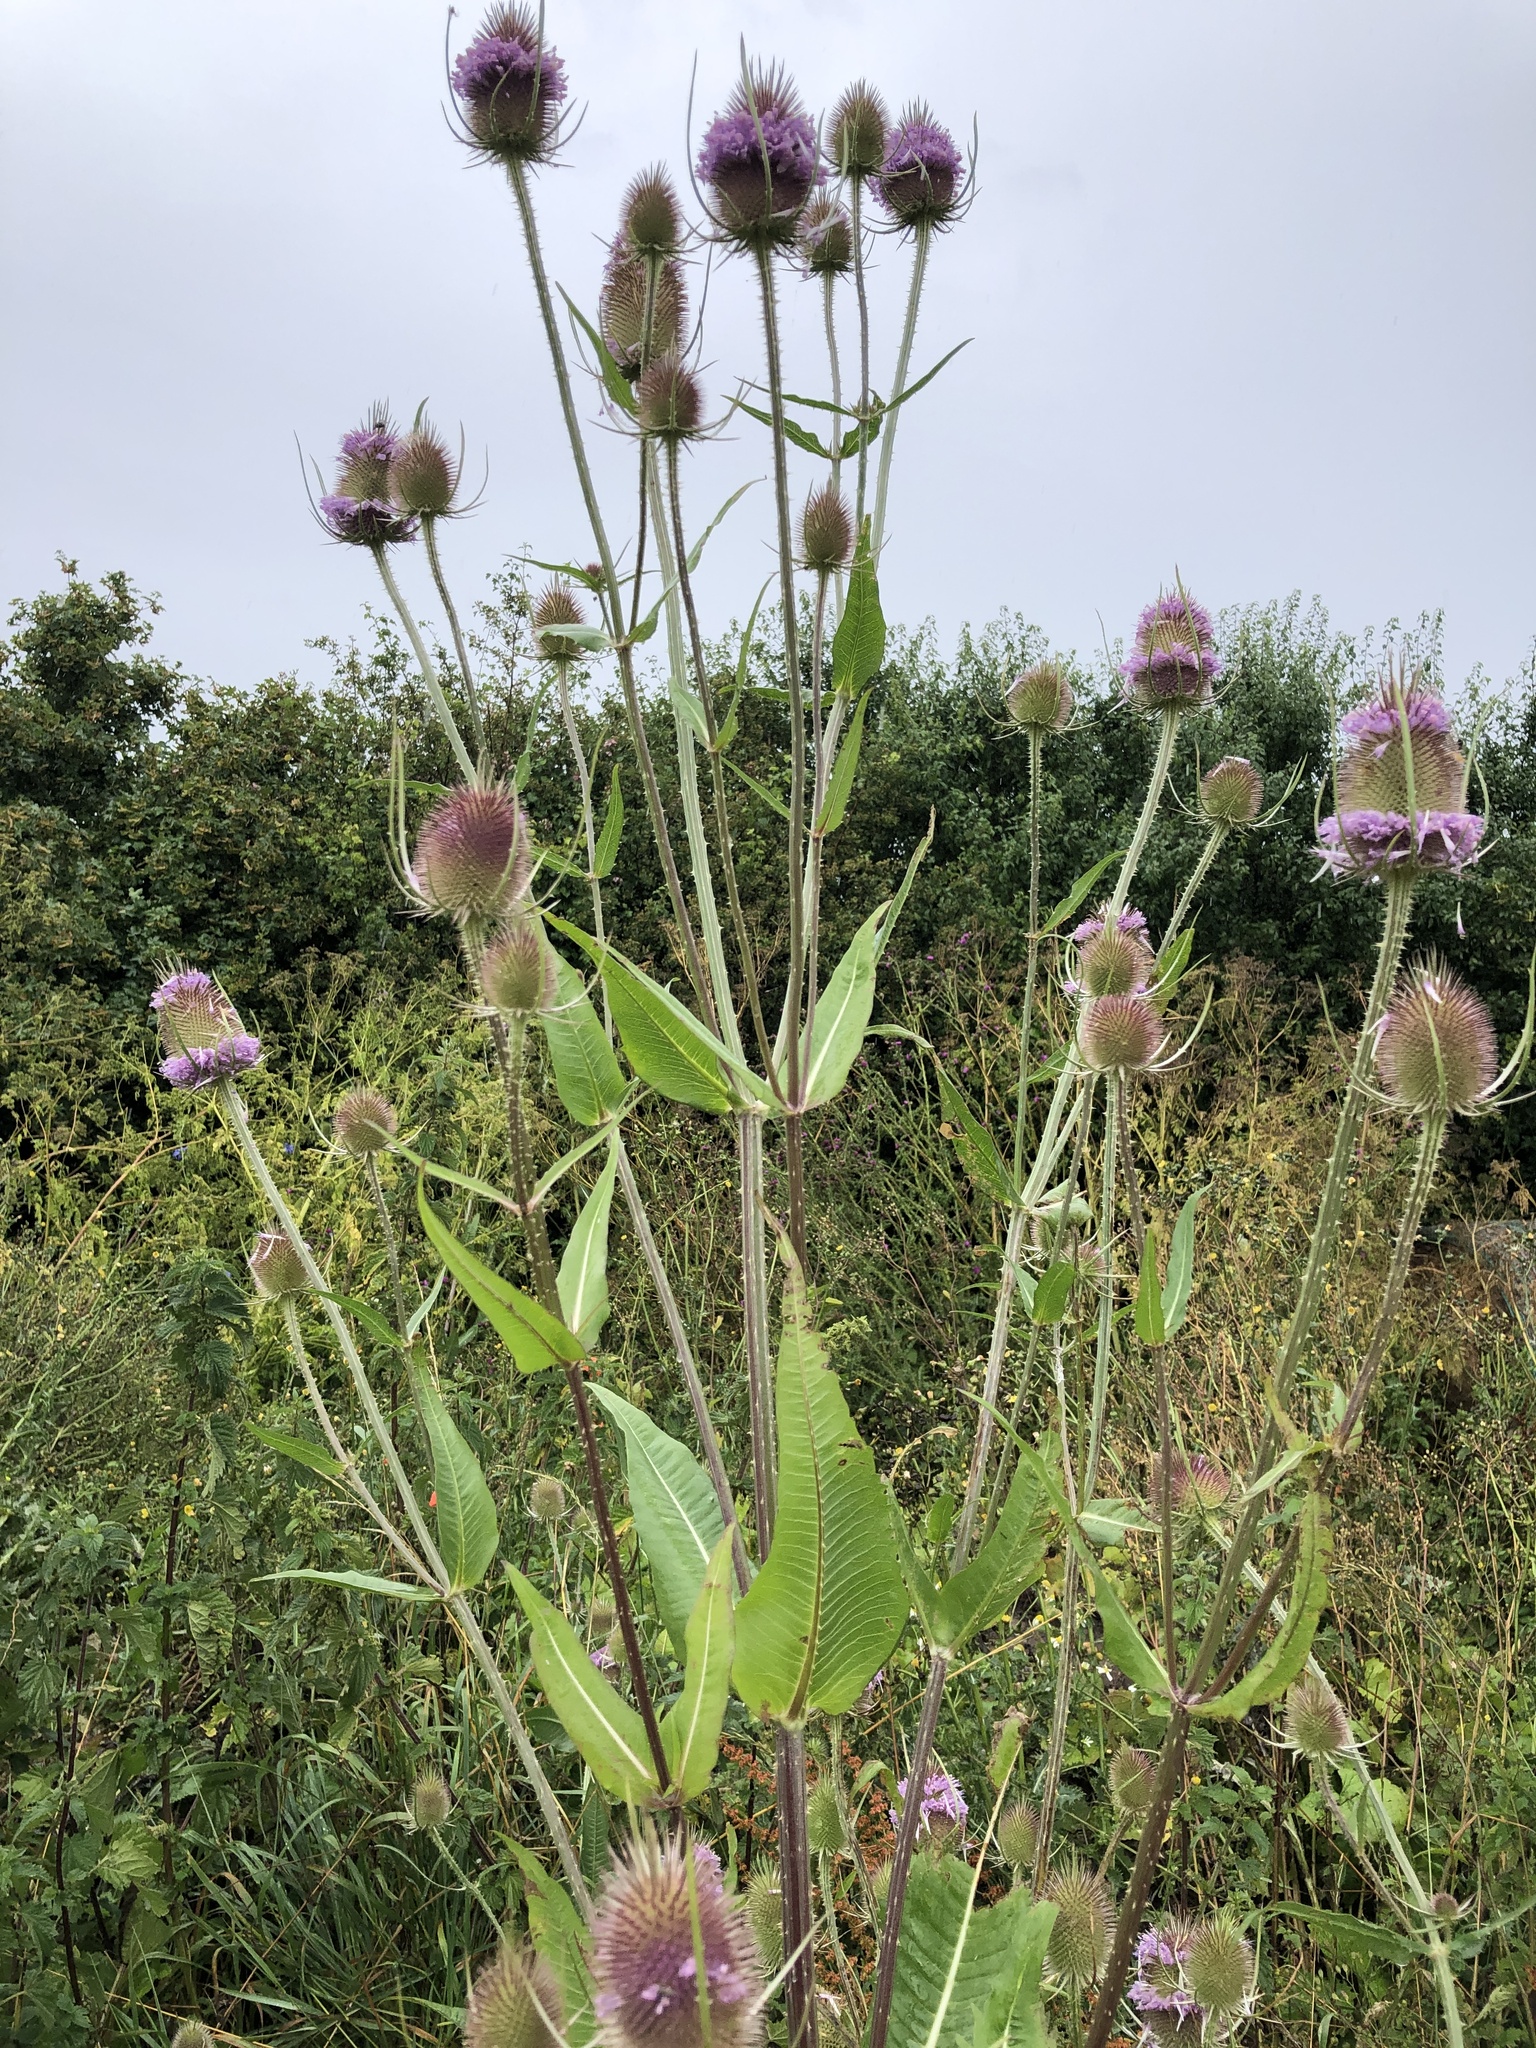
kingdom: Plantae
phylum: Tracheophyta
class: Magnoliopsida
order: Dipsacales
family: Caprifoliaceae
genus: Dipsacus
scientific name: Dipsacus fullonum
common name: Teasel
